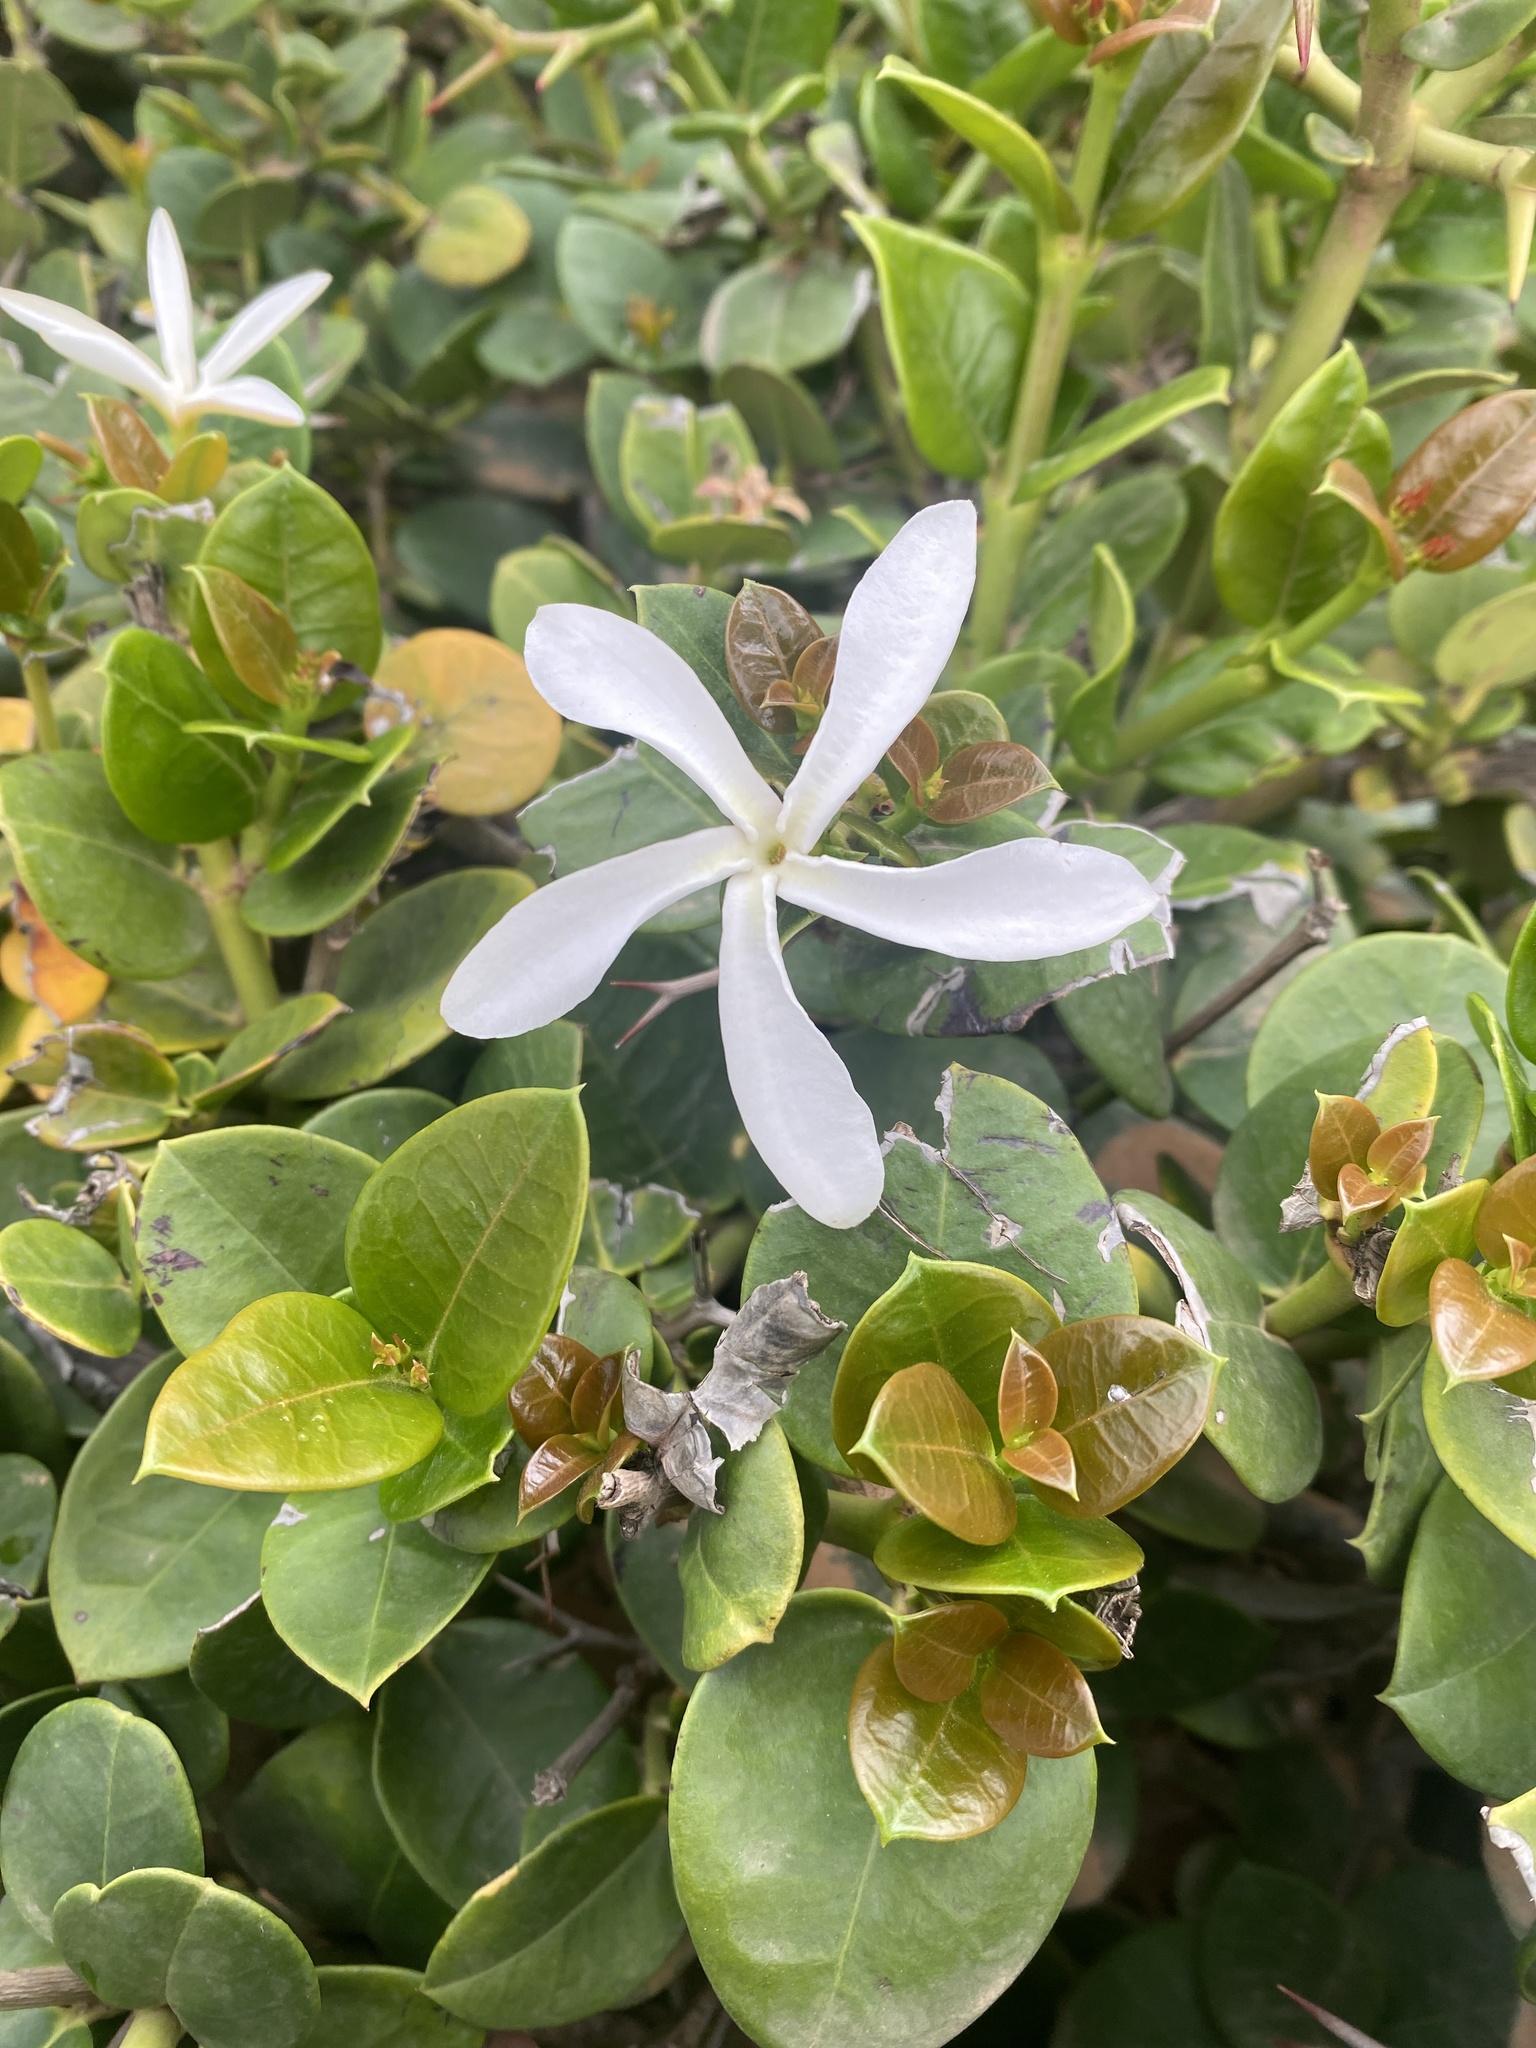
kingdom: Plantae
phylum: Tracheophyta
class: Magnoliopsida
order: Gentianales
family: Apocynaceae
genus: Carissa
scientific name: Carissa macrocarpa
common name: Natal plum
